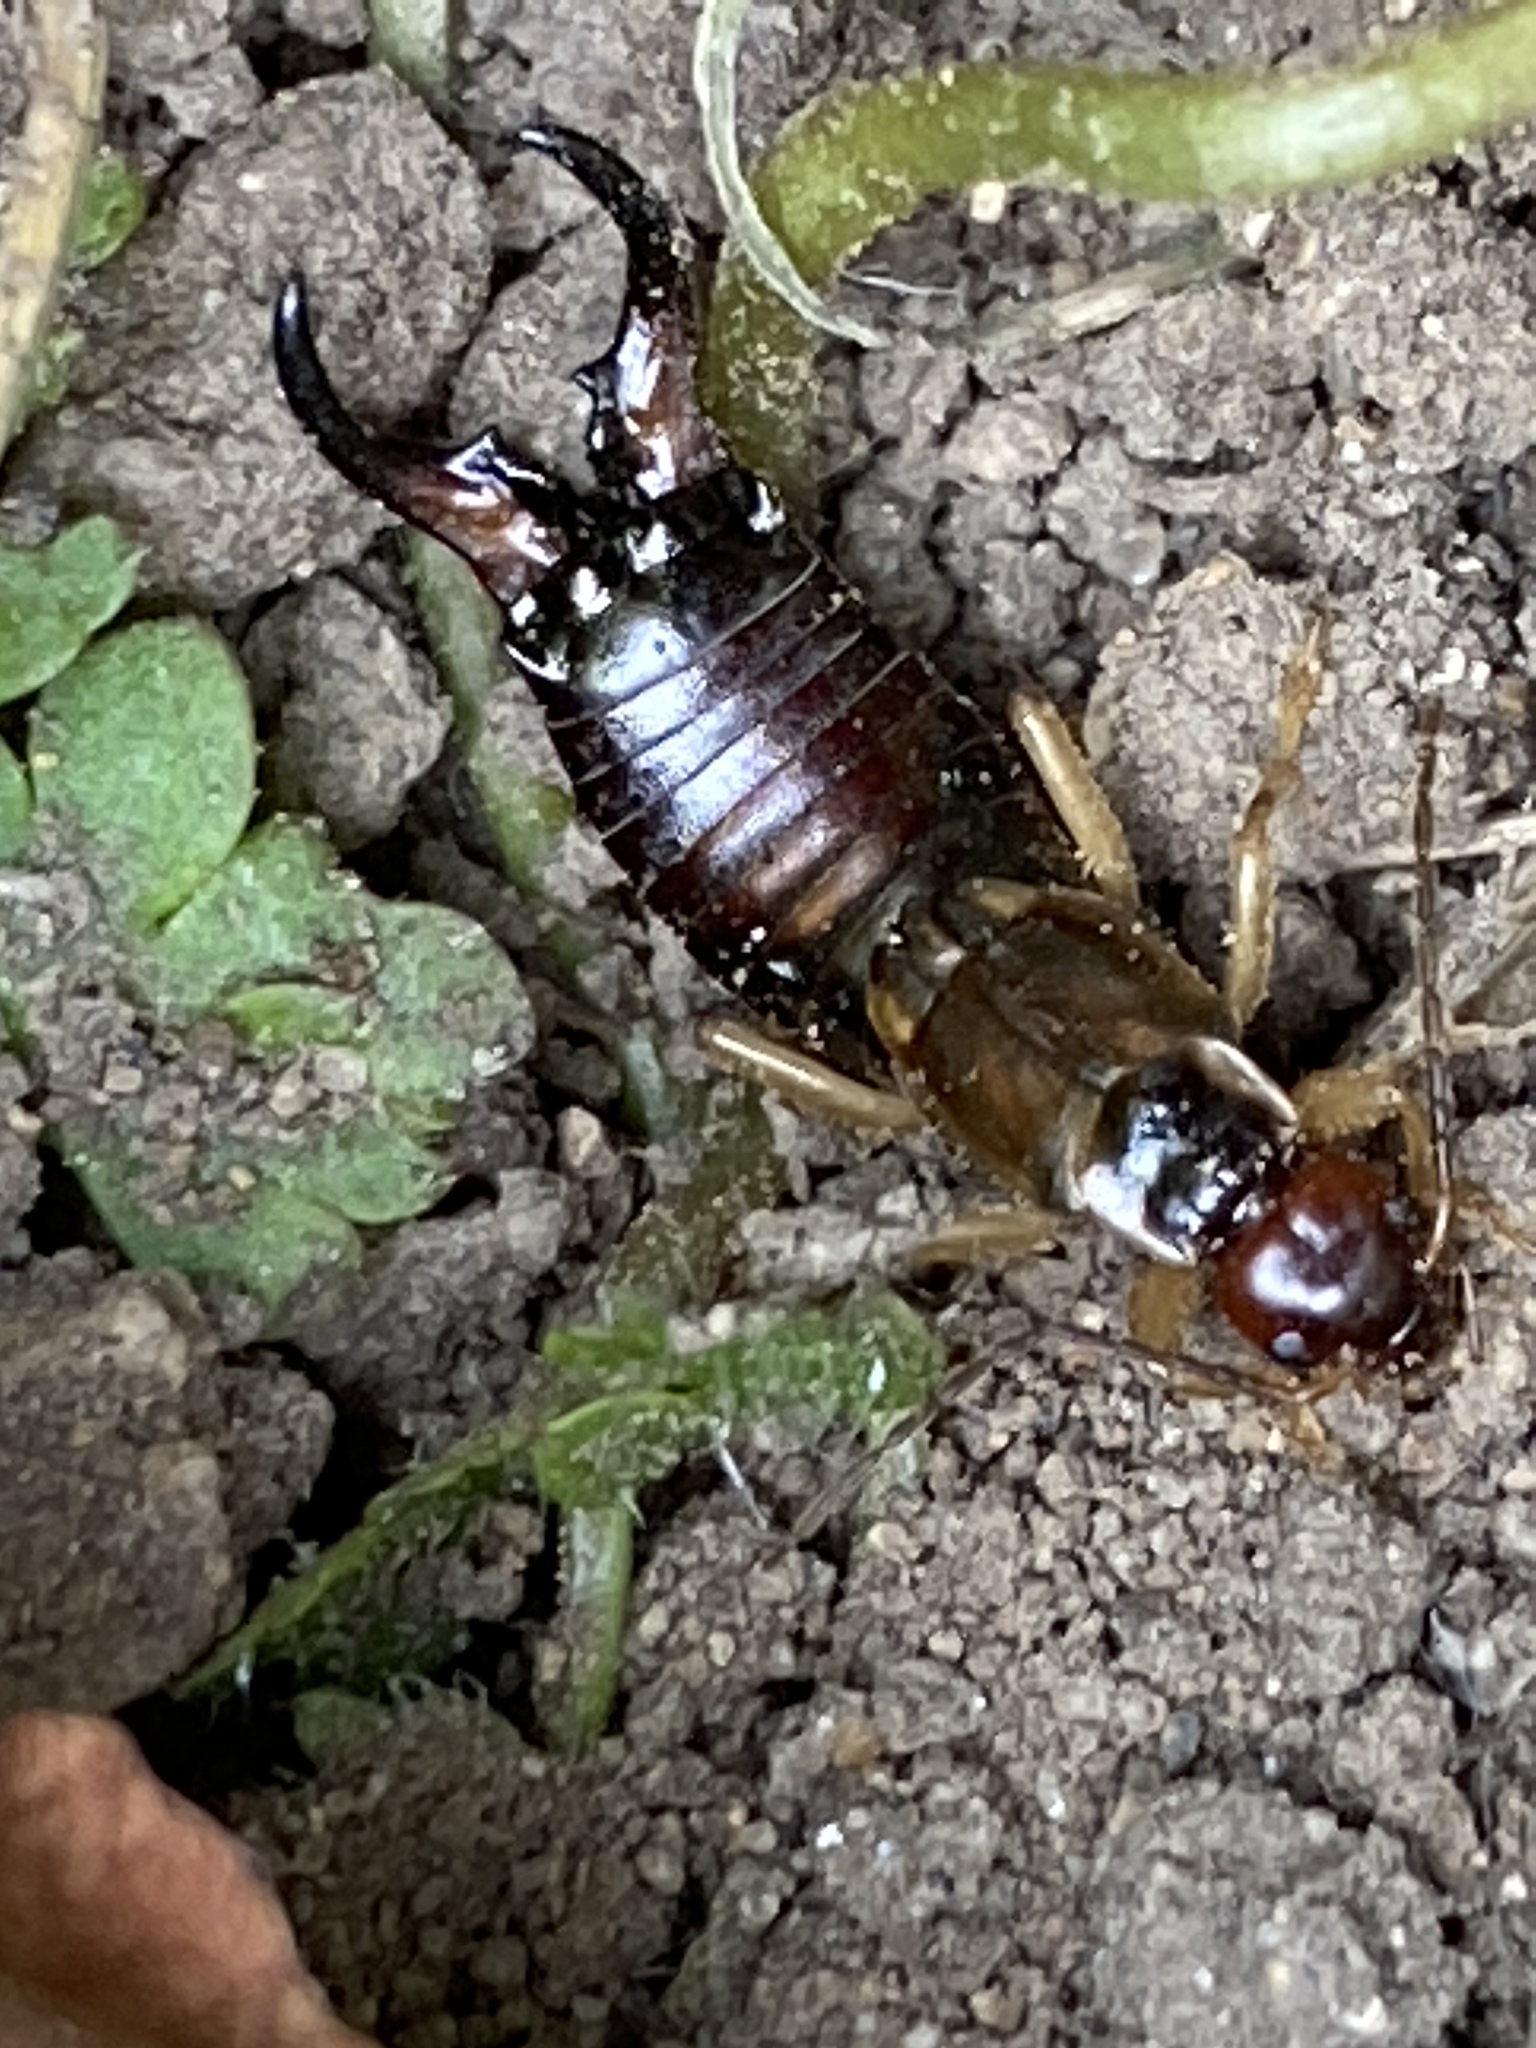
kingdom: Animalia
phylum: Arthropoda
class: Insecta
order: Dermaptera
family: Forficulidae
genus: Forficula
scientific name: Forficula
